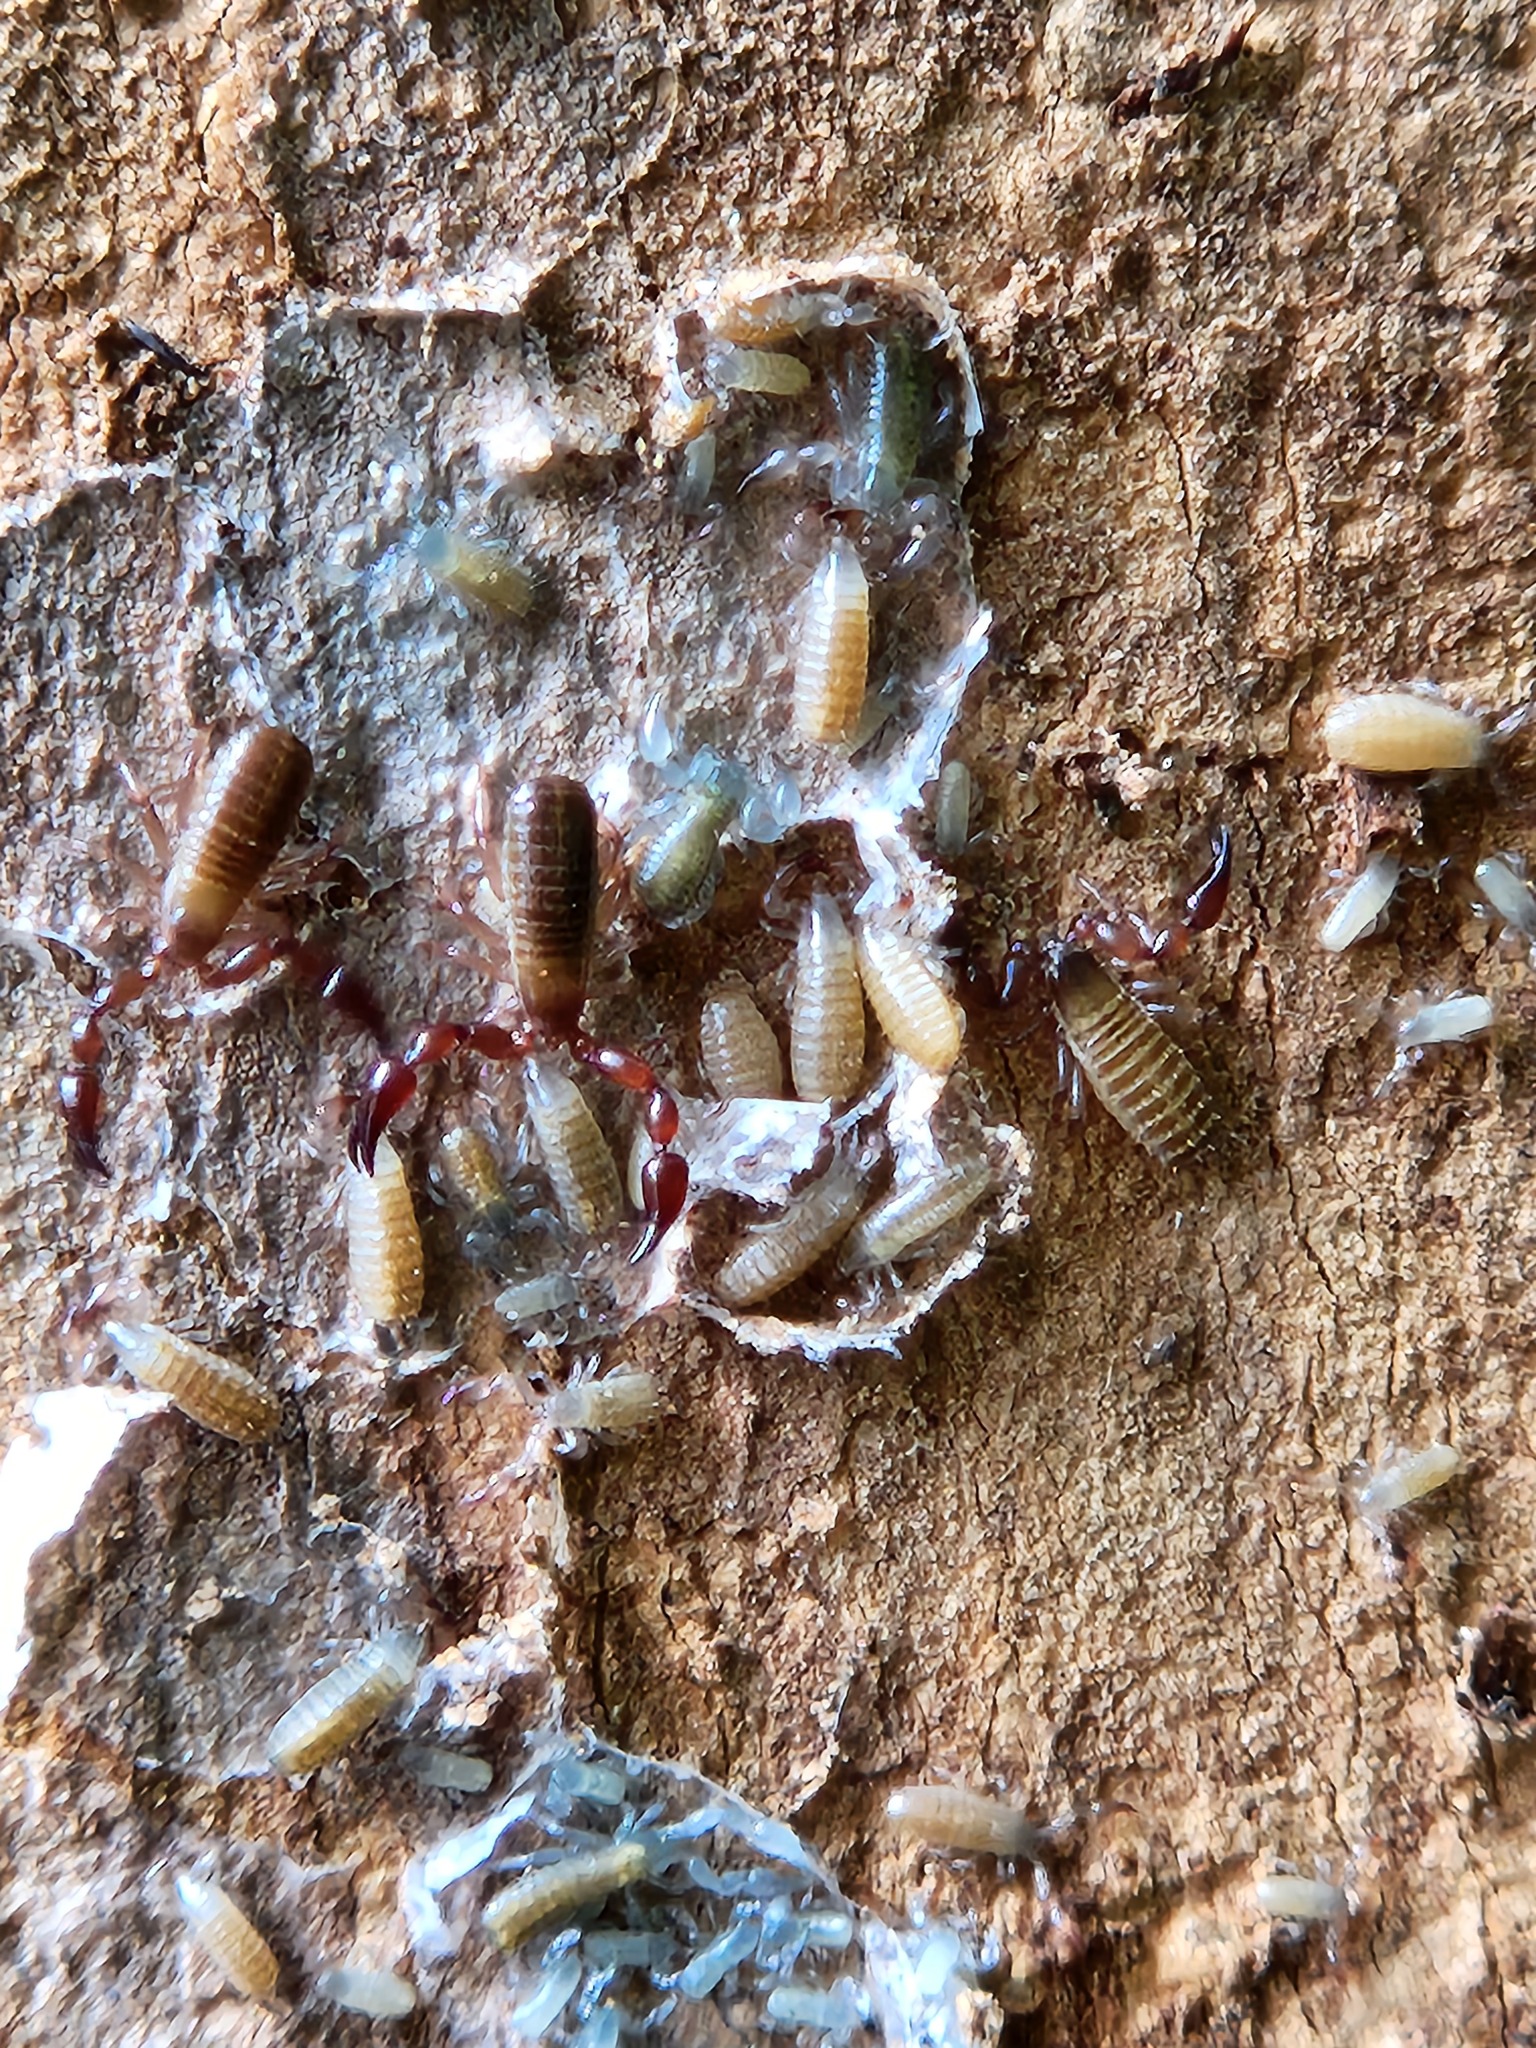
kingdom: Animalia
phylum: Arthropoda
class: Arachnida
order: Pseudoscorpiones
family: Atemnidae
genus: Paratemnoides
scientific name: Paratemnoides nidificator
